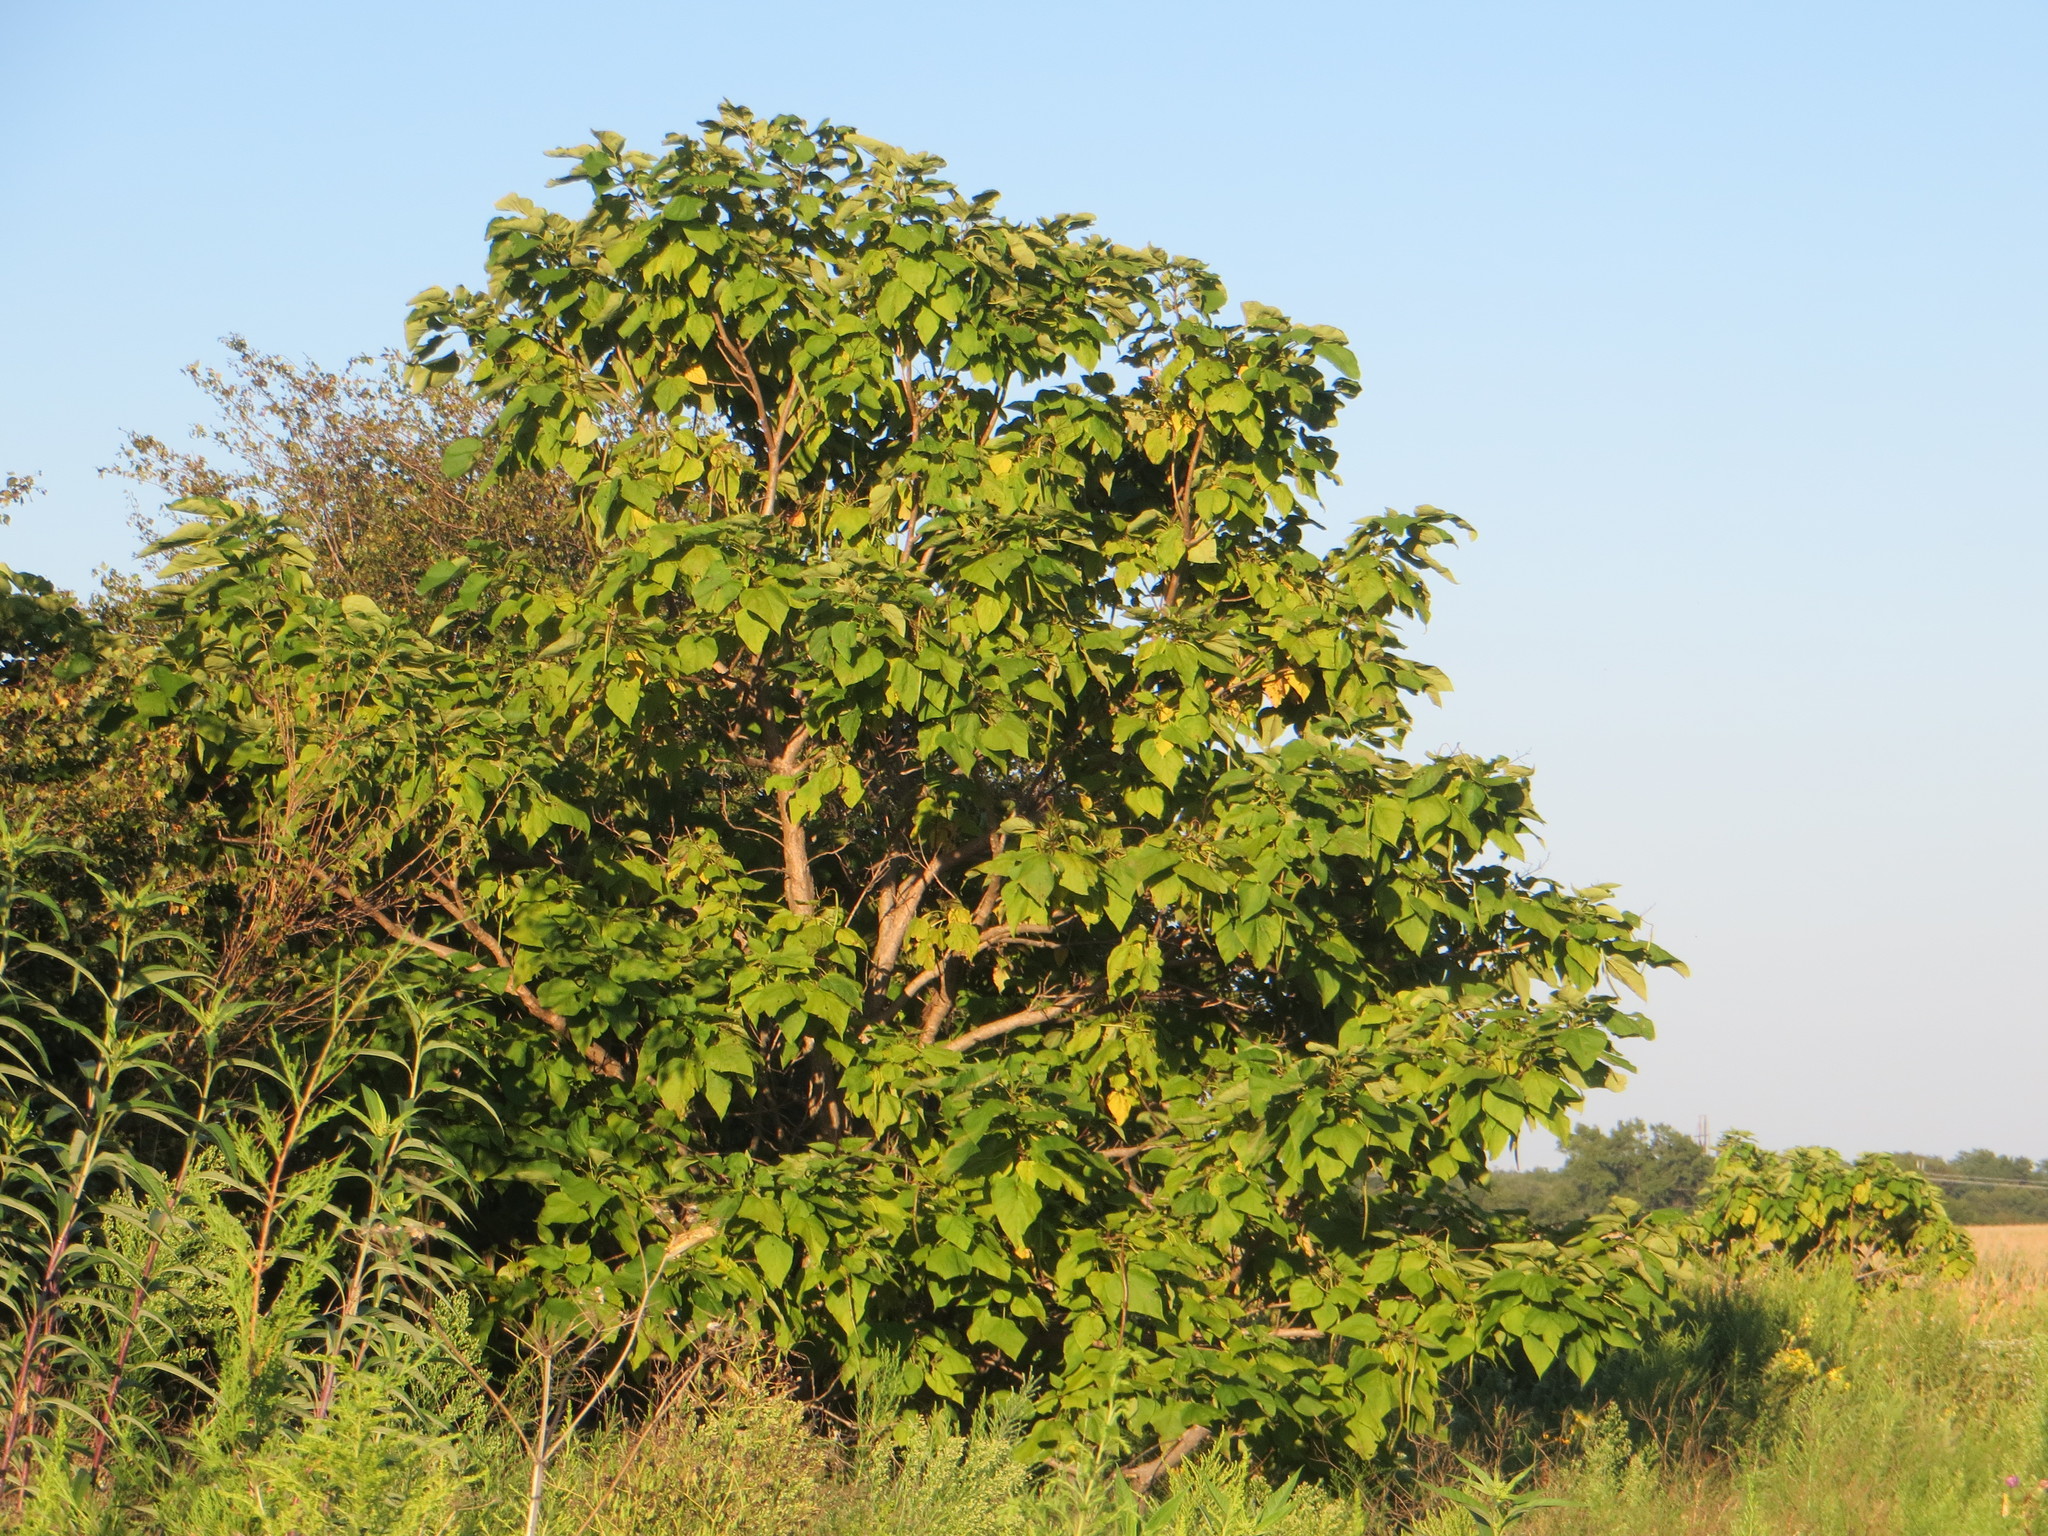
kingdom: Plantae
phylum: Tracheophyta
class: Magnoliopsida
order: Lamiales
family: Bignoniaceae
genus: Catalpa
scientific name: Catalpa speciosa
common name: Northern catalpa
